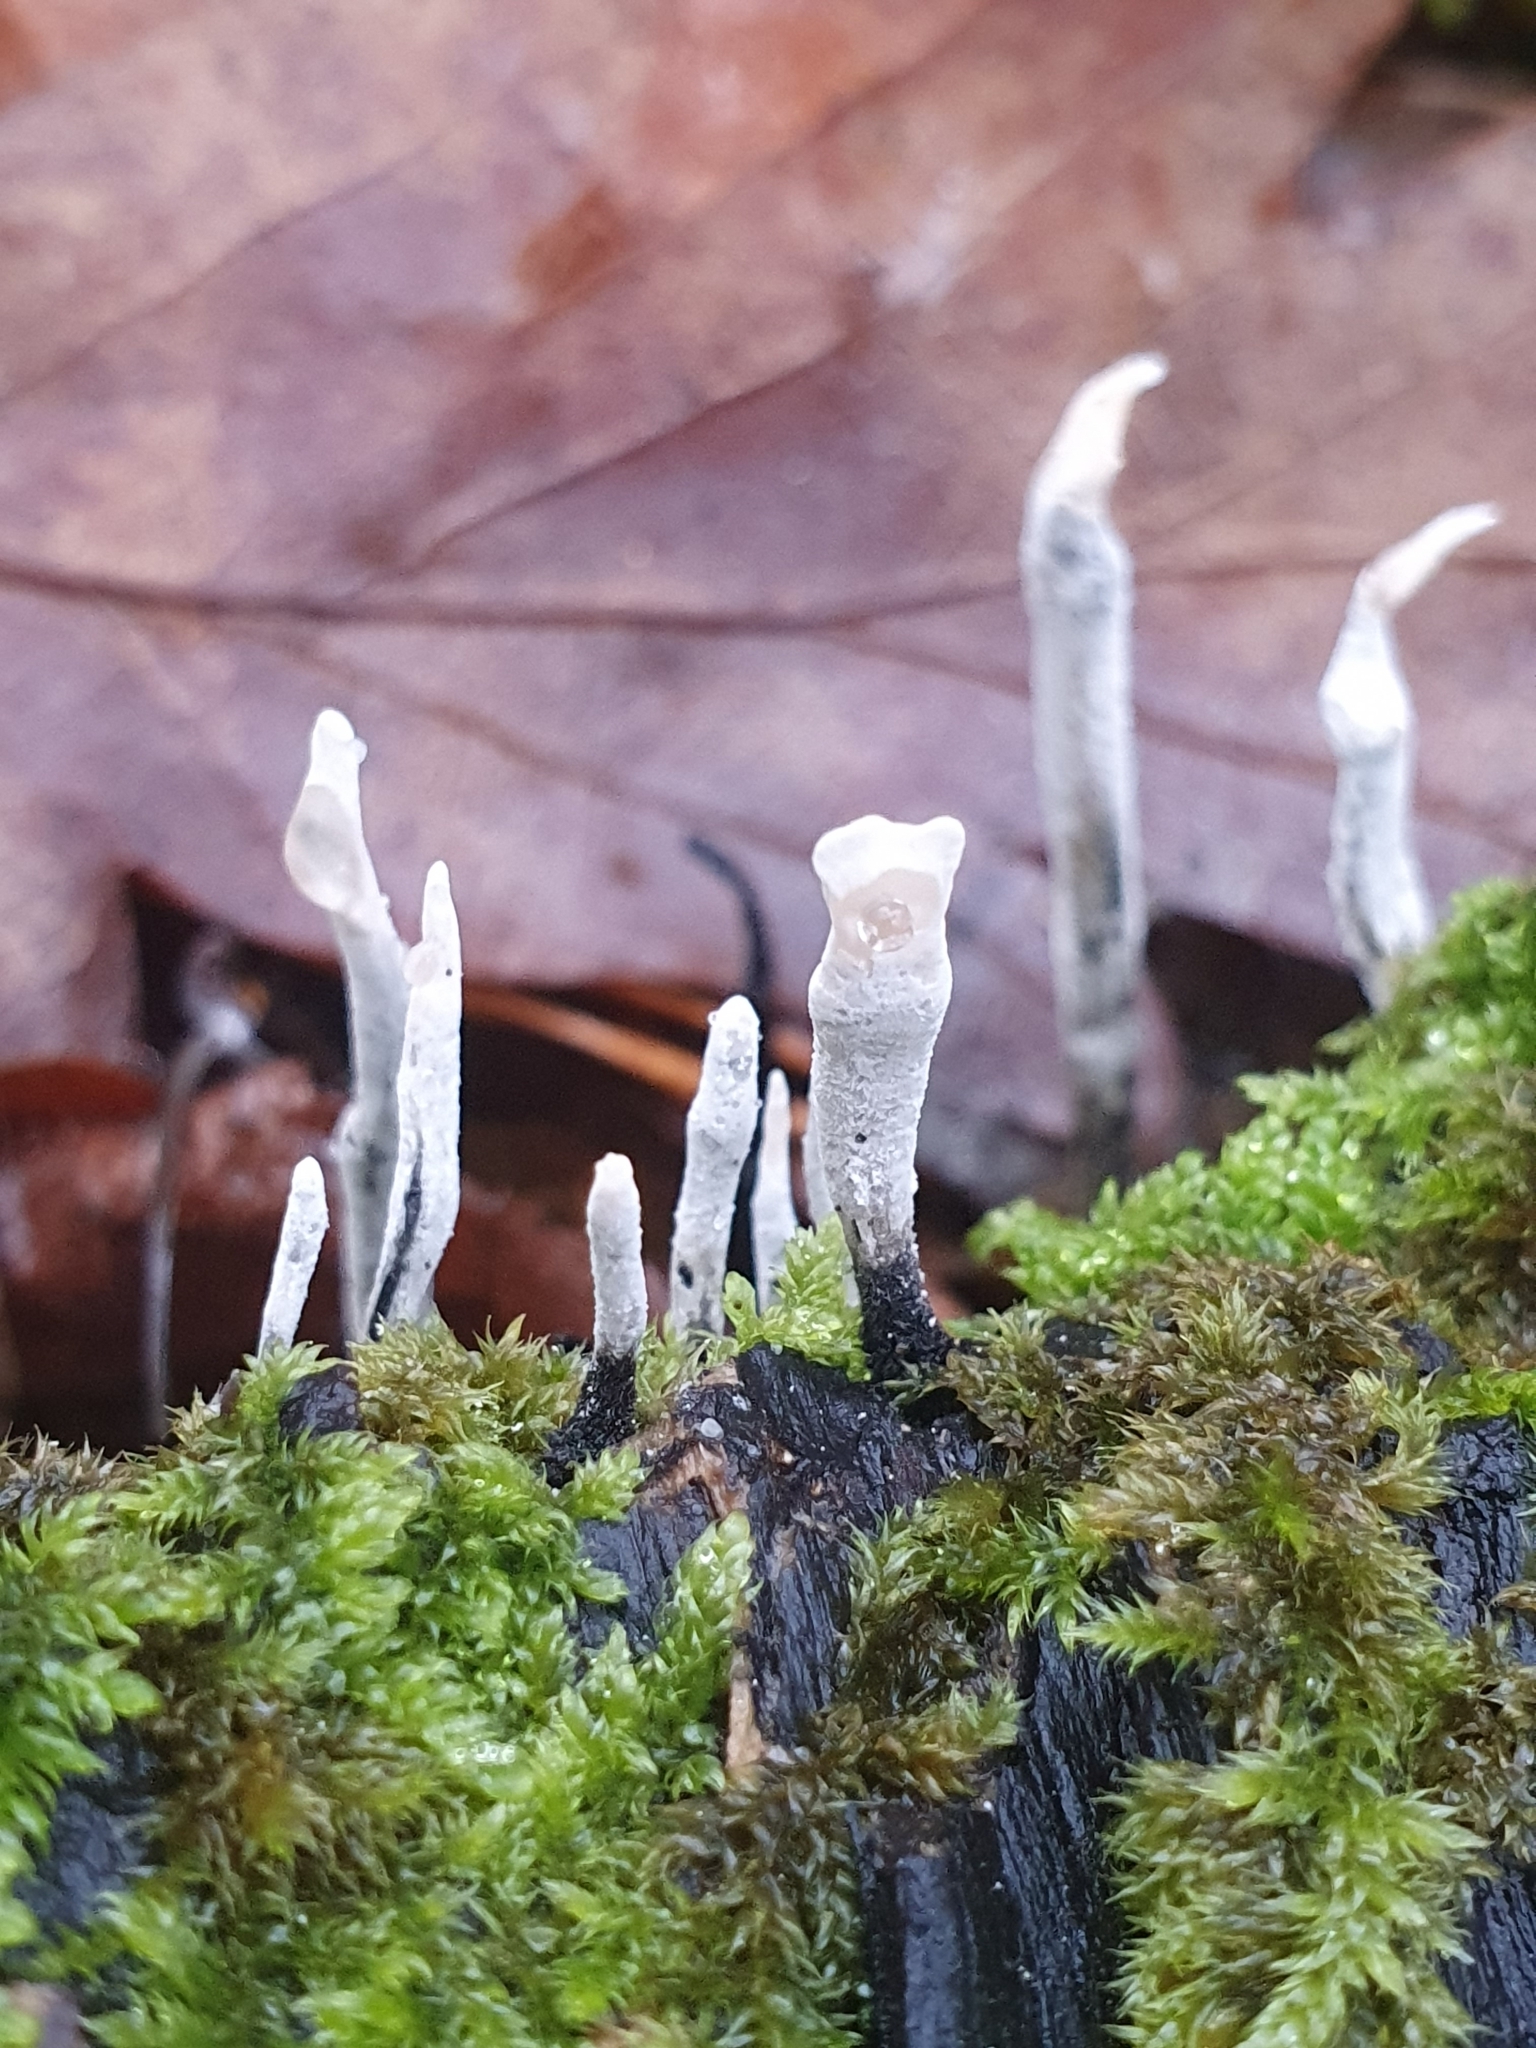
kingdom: Fungi
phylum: Ascomycota
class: Sordariomycetes
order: Xylariales
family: Xylariaceae
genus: Xylaria
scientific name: Xylaria hypoxylon
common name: Candle-snuff fungus
